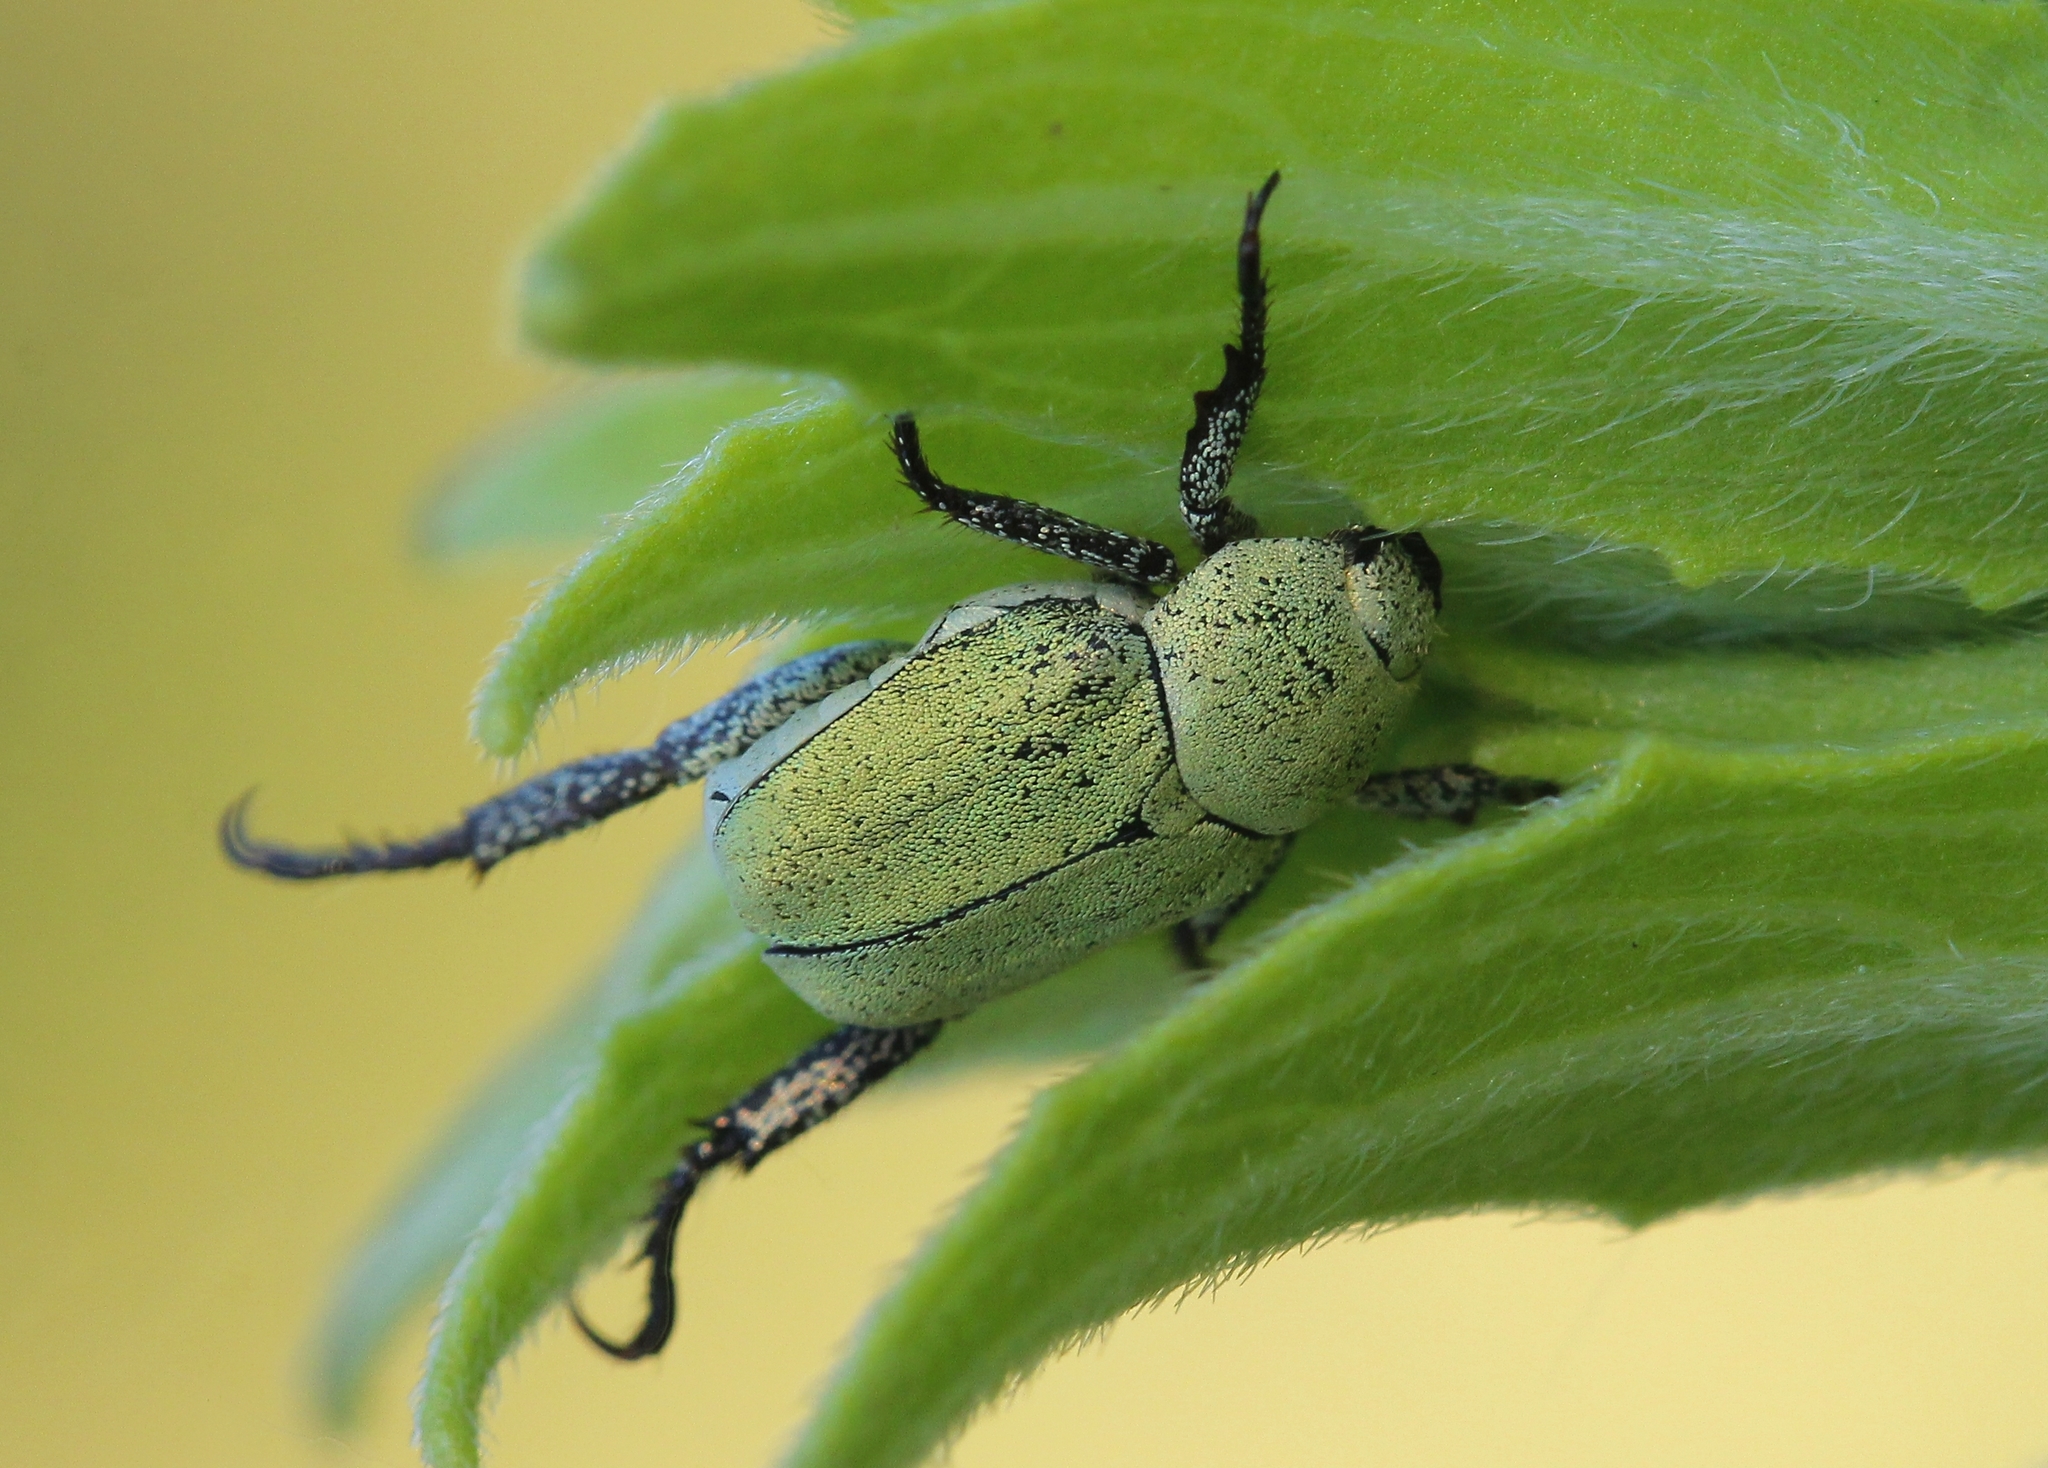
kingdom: Animalia
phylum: Arthropoda
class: Insecta
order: Coleoptera
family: Scarabaeidae
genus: Hoplia
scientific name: Hoplia parvula
